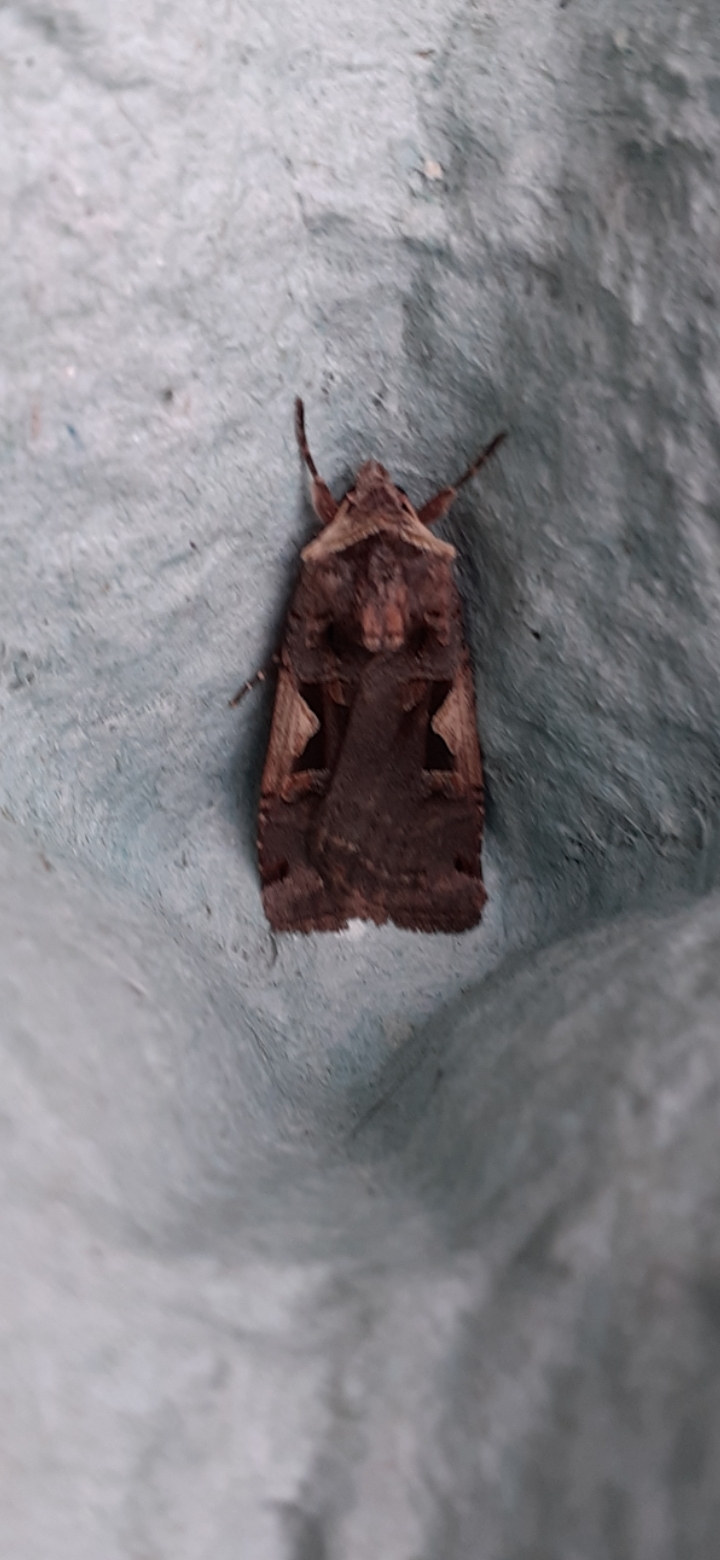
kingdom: Animalia
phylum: Arthropoda
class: Insecta
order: Lepidoptera
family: Noctuidae
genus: Xestia
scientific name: Xestia c-nigrum
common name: Setaceous hebrew character
